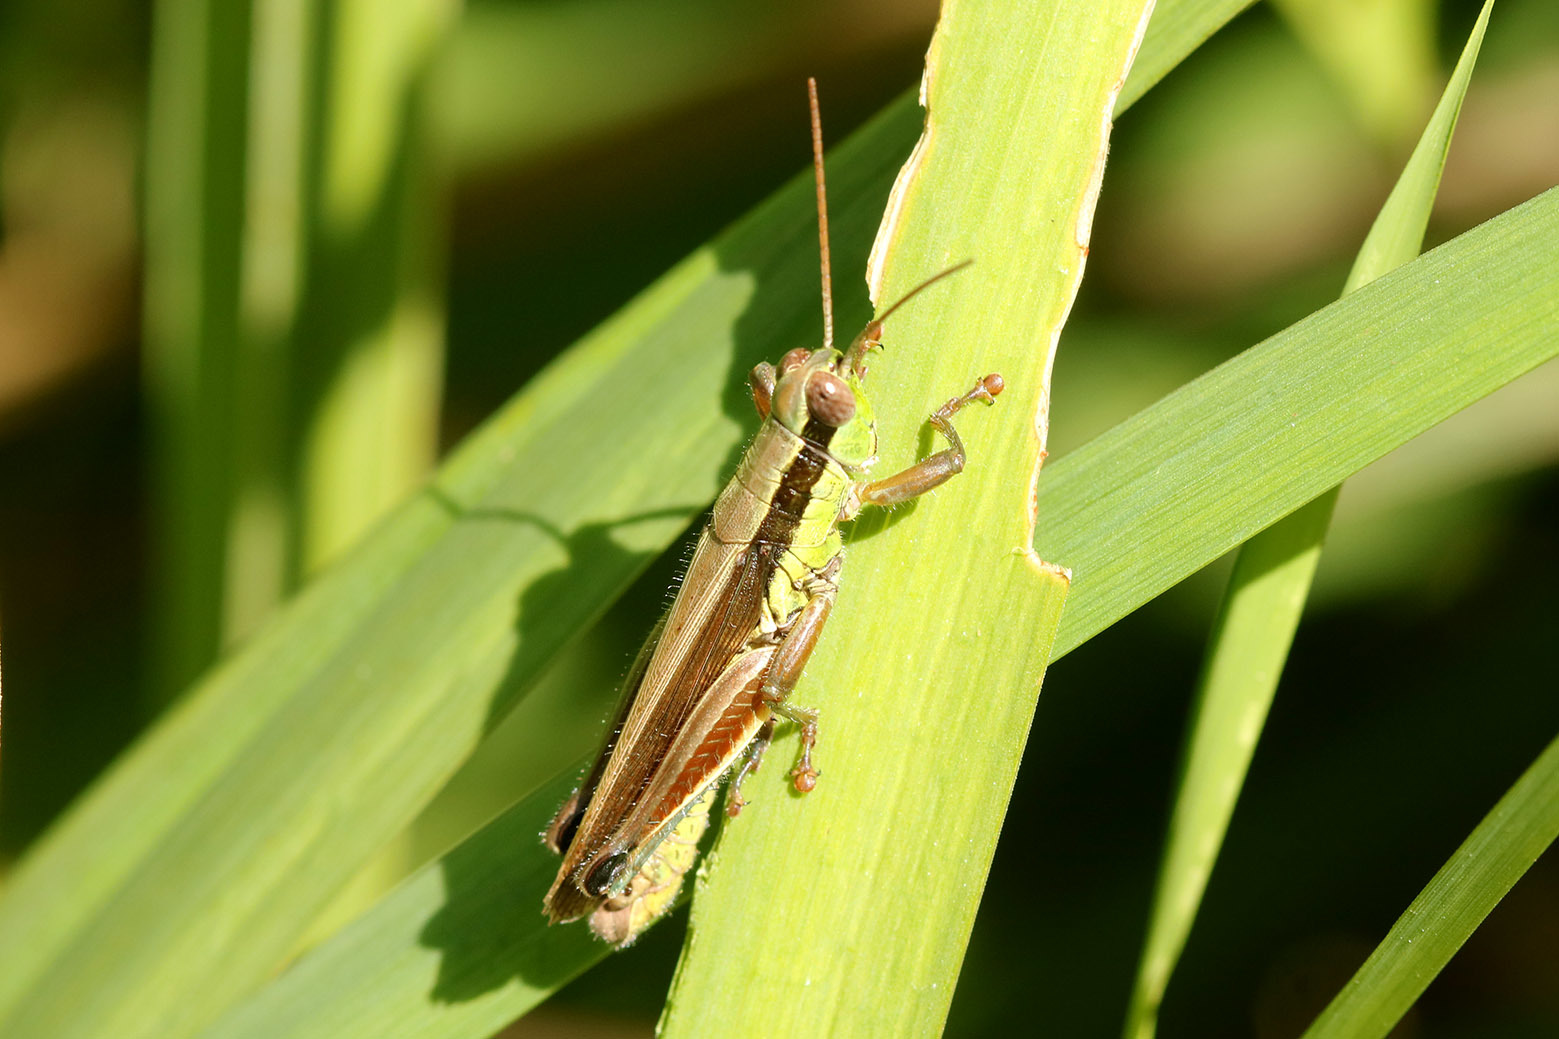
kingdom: Animalia
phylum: Arthropoda
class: Insecta
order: Orthoptera
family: Acrididae
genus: Scotussa
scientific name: Scotussa impudica
